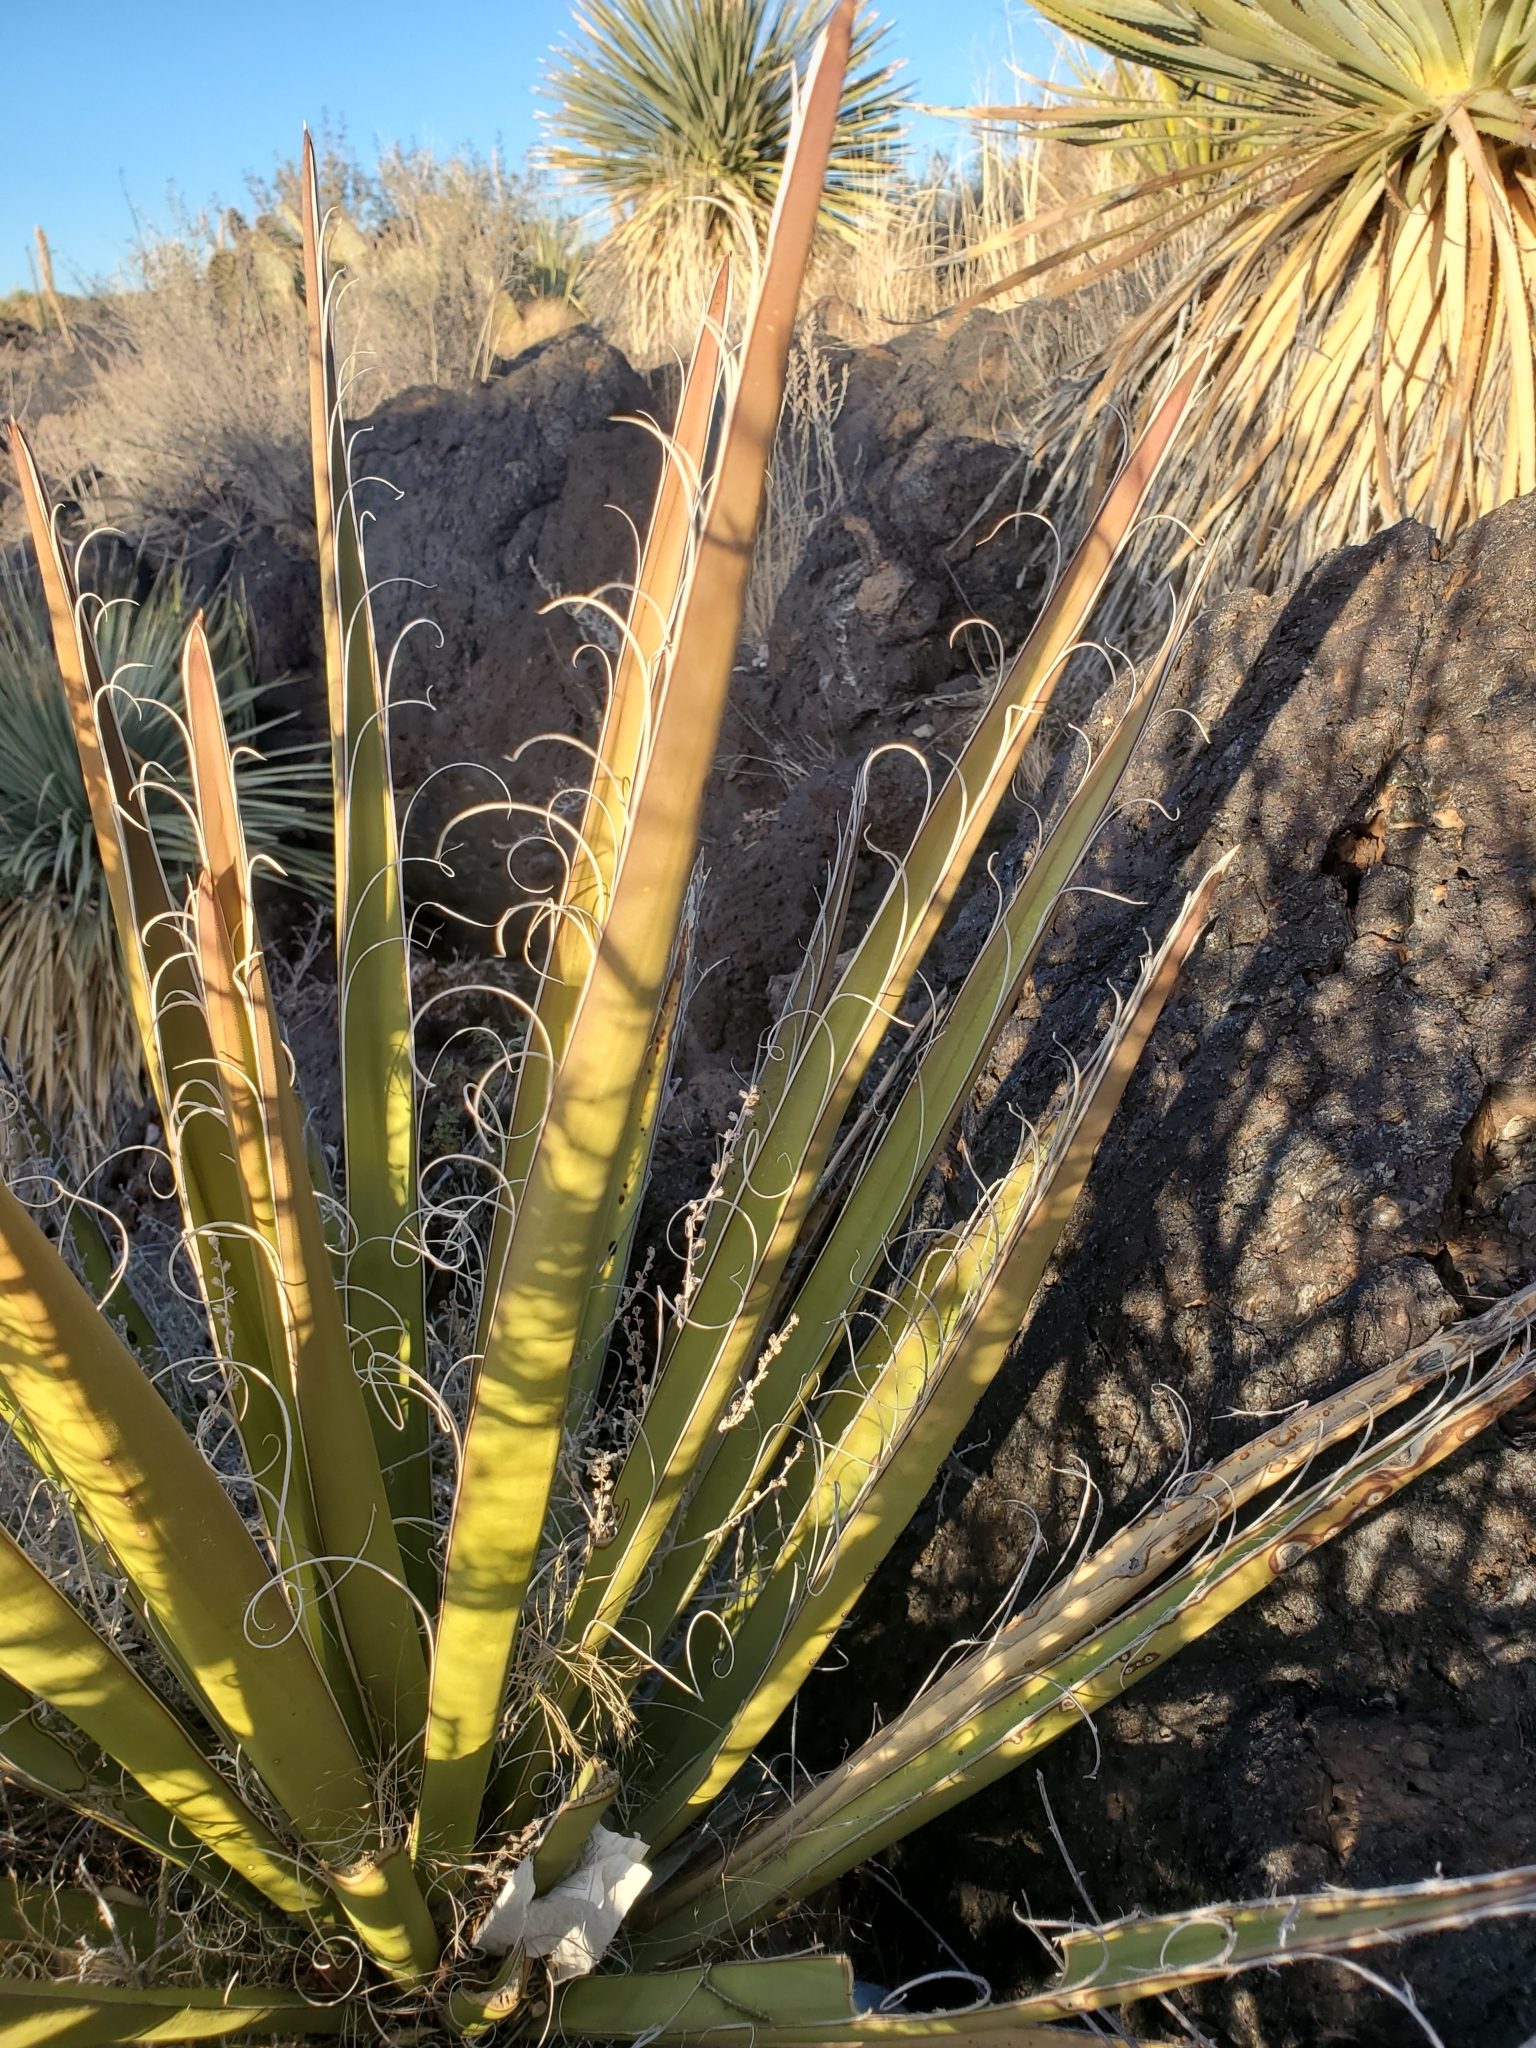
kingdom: Plantae
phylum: Tracheophyta
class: Liliopsida
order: Asparagales
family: Asparagaceae
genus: Yucca
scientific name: Yucca baccata
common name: Banana yucca
